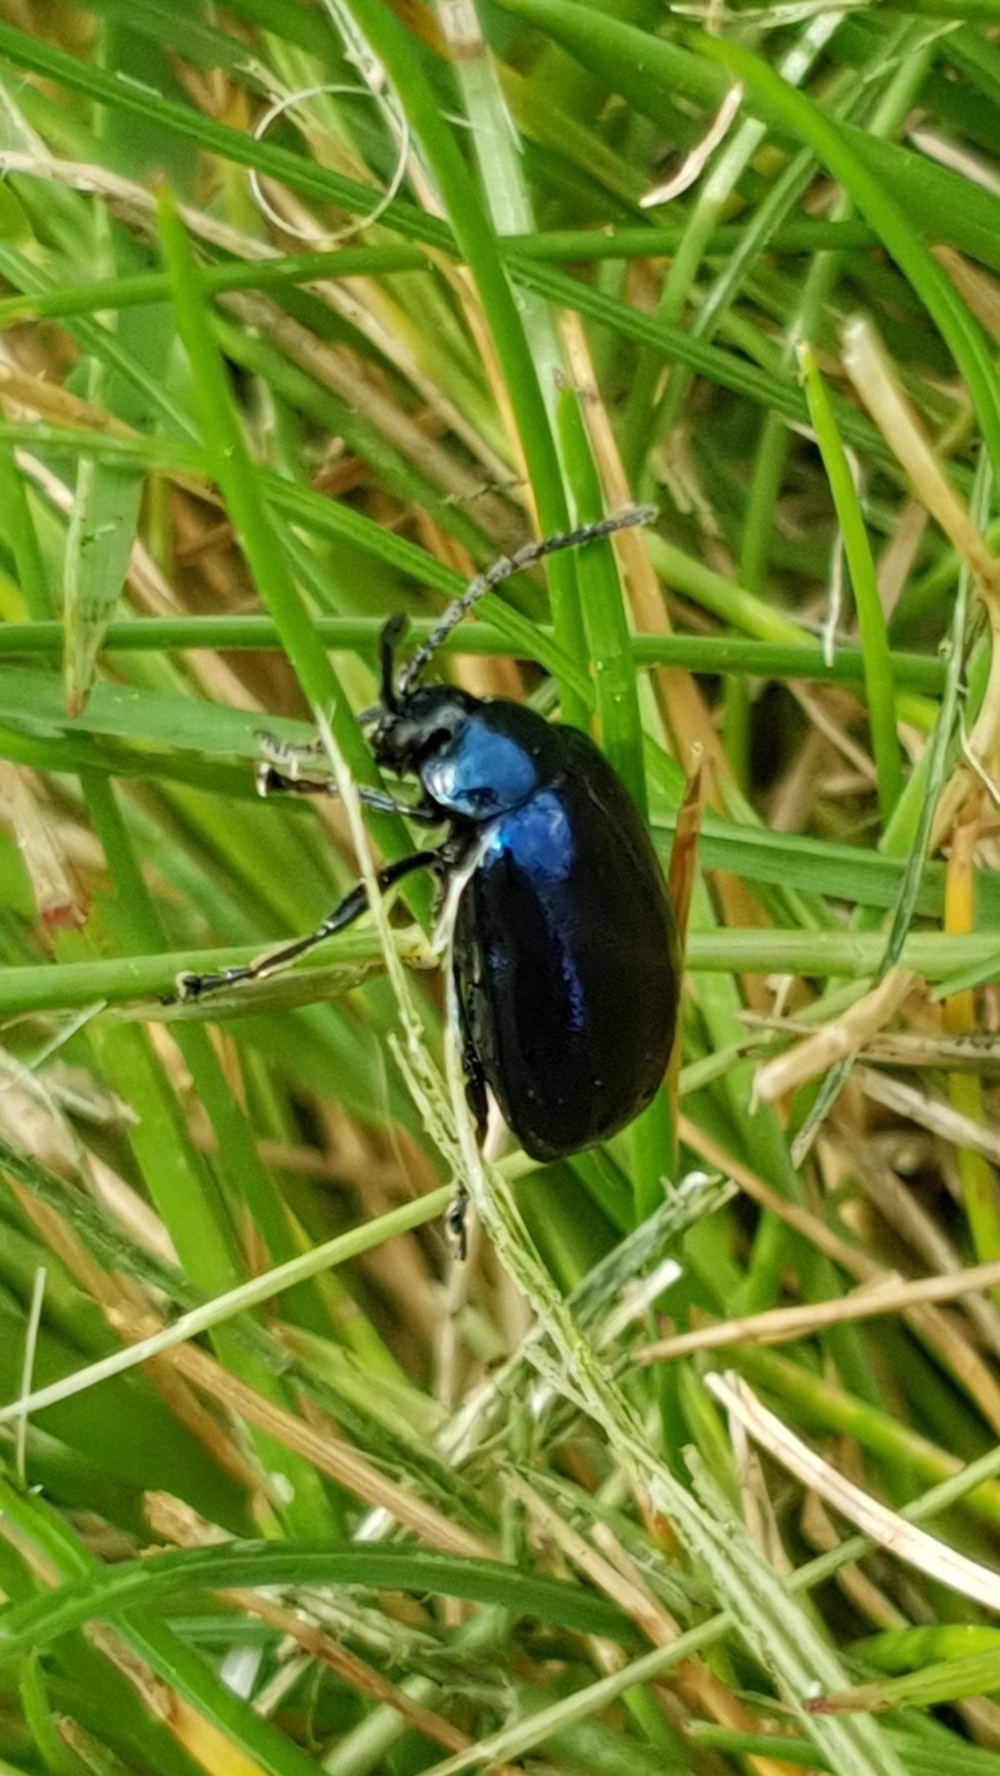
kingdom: Animalia
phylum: Arthropoda
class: Insecta
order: Coleoptera
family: Chrysomelidae
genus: Agelastica
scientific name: Agelastica alni
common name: Alder leaf beetle
